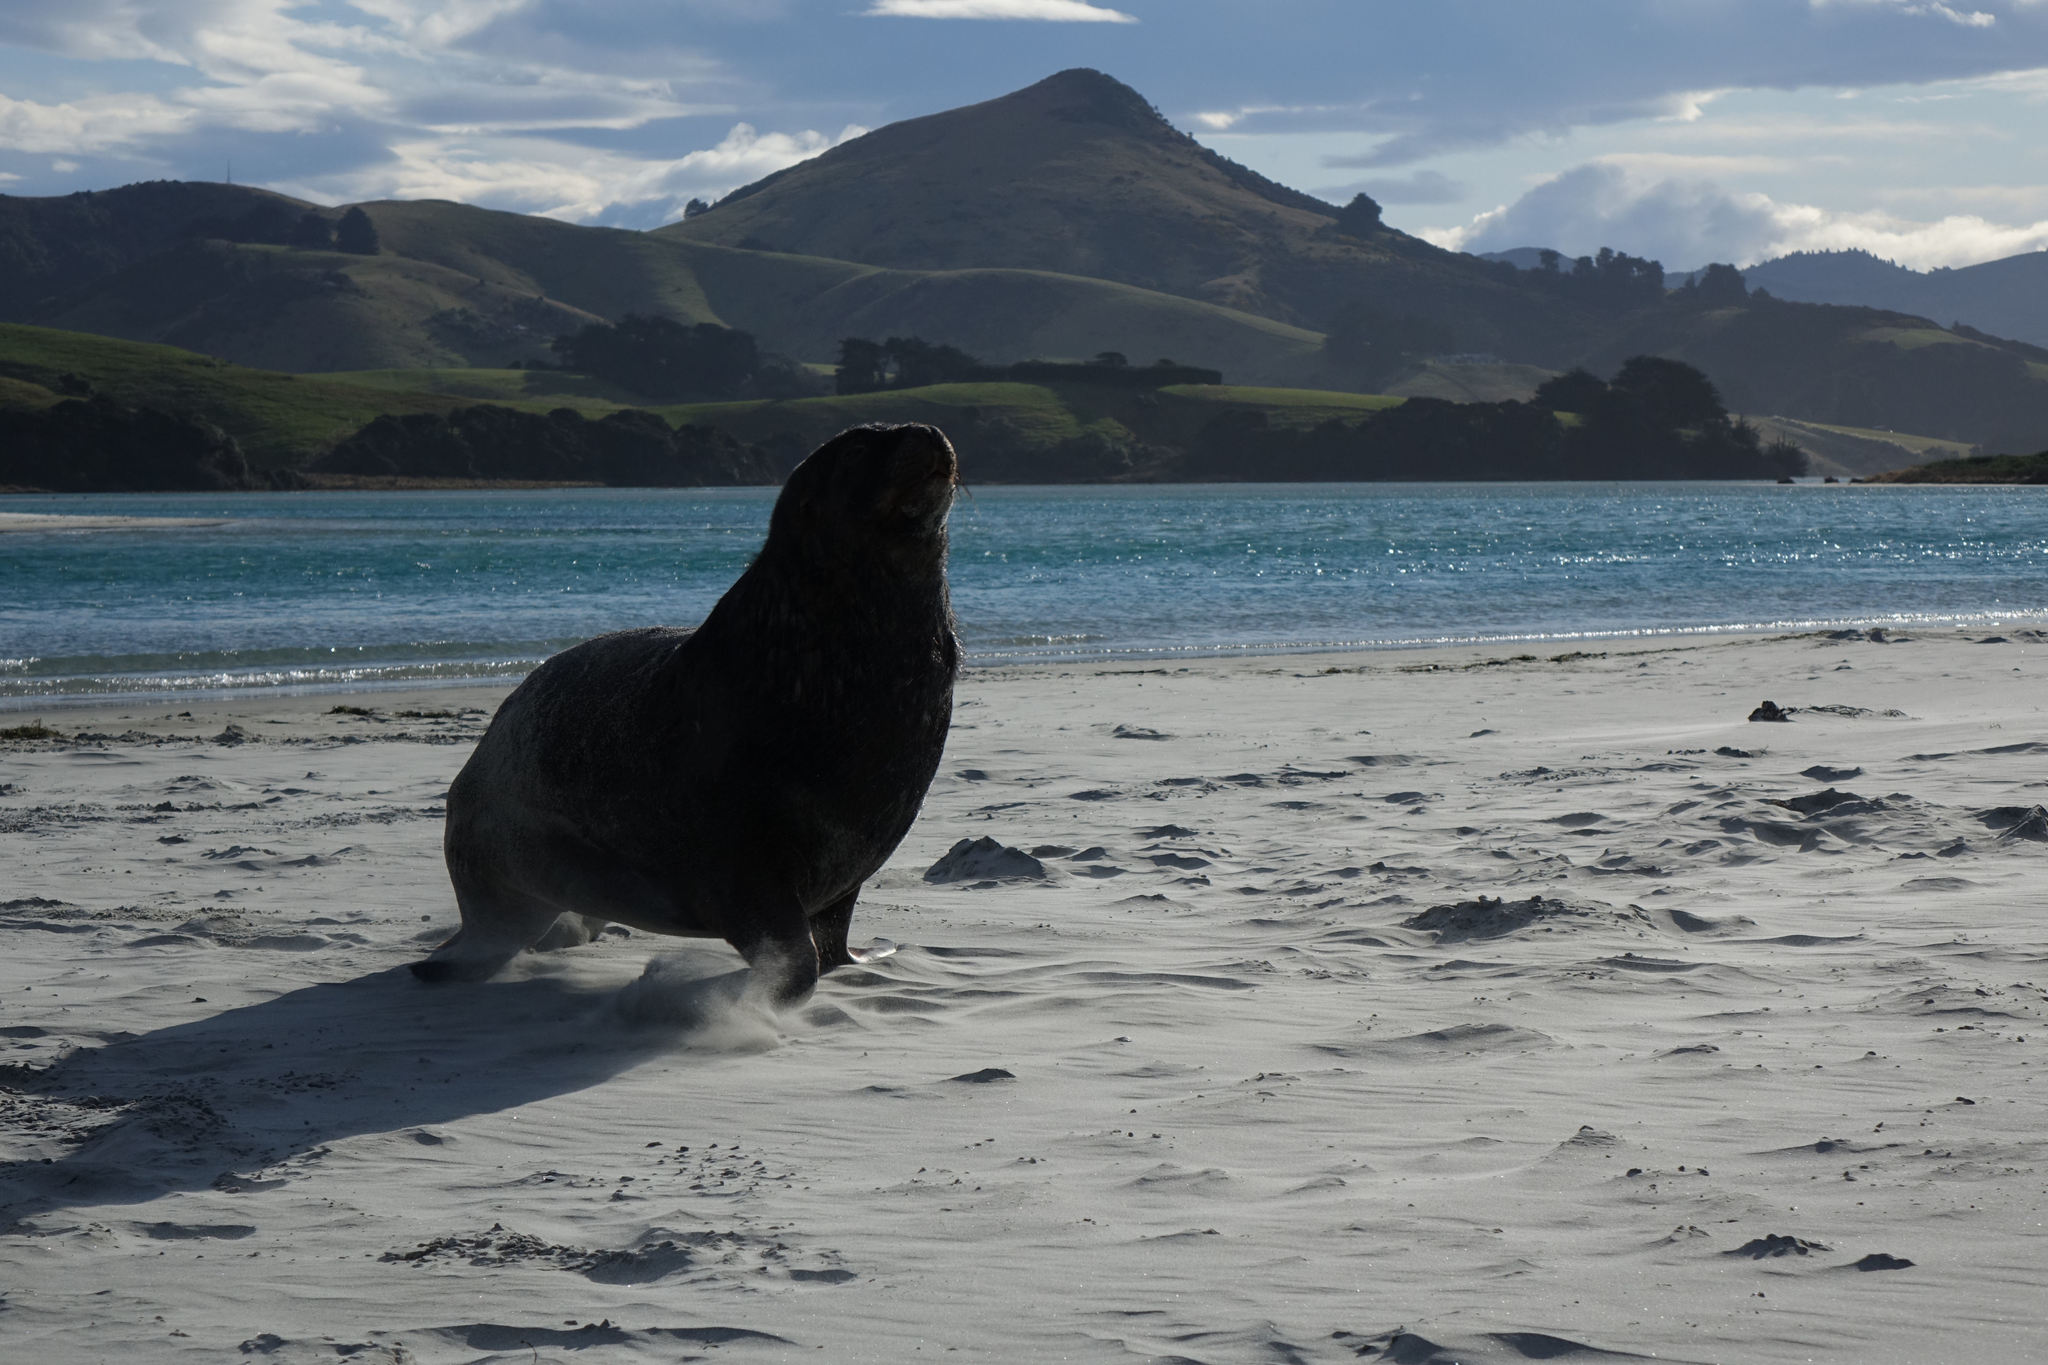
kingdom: Animalia
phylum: Chordata
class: Mammalia
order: Carnivora
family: Otariidae
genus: Phocarctos
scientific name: Phocarctos hookeri
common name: New zealand sea lion
